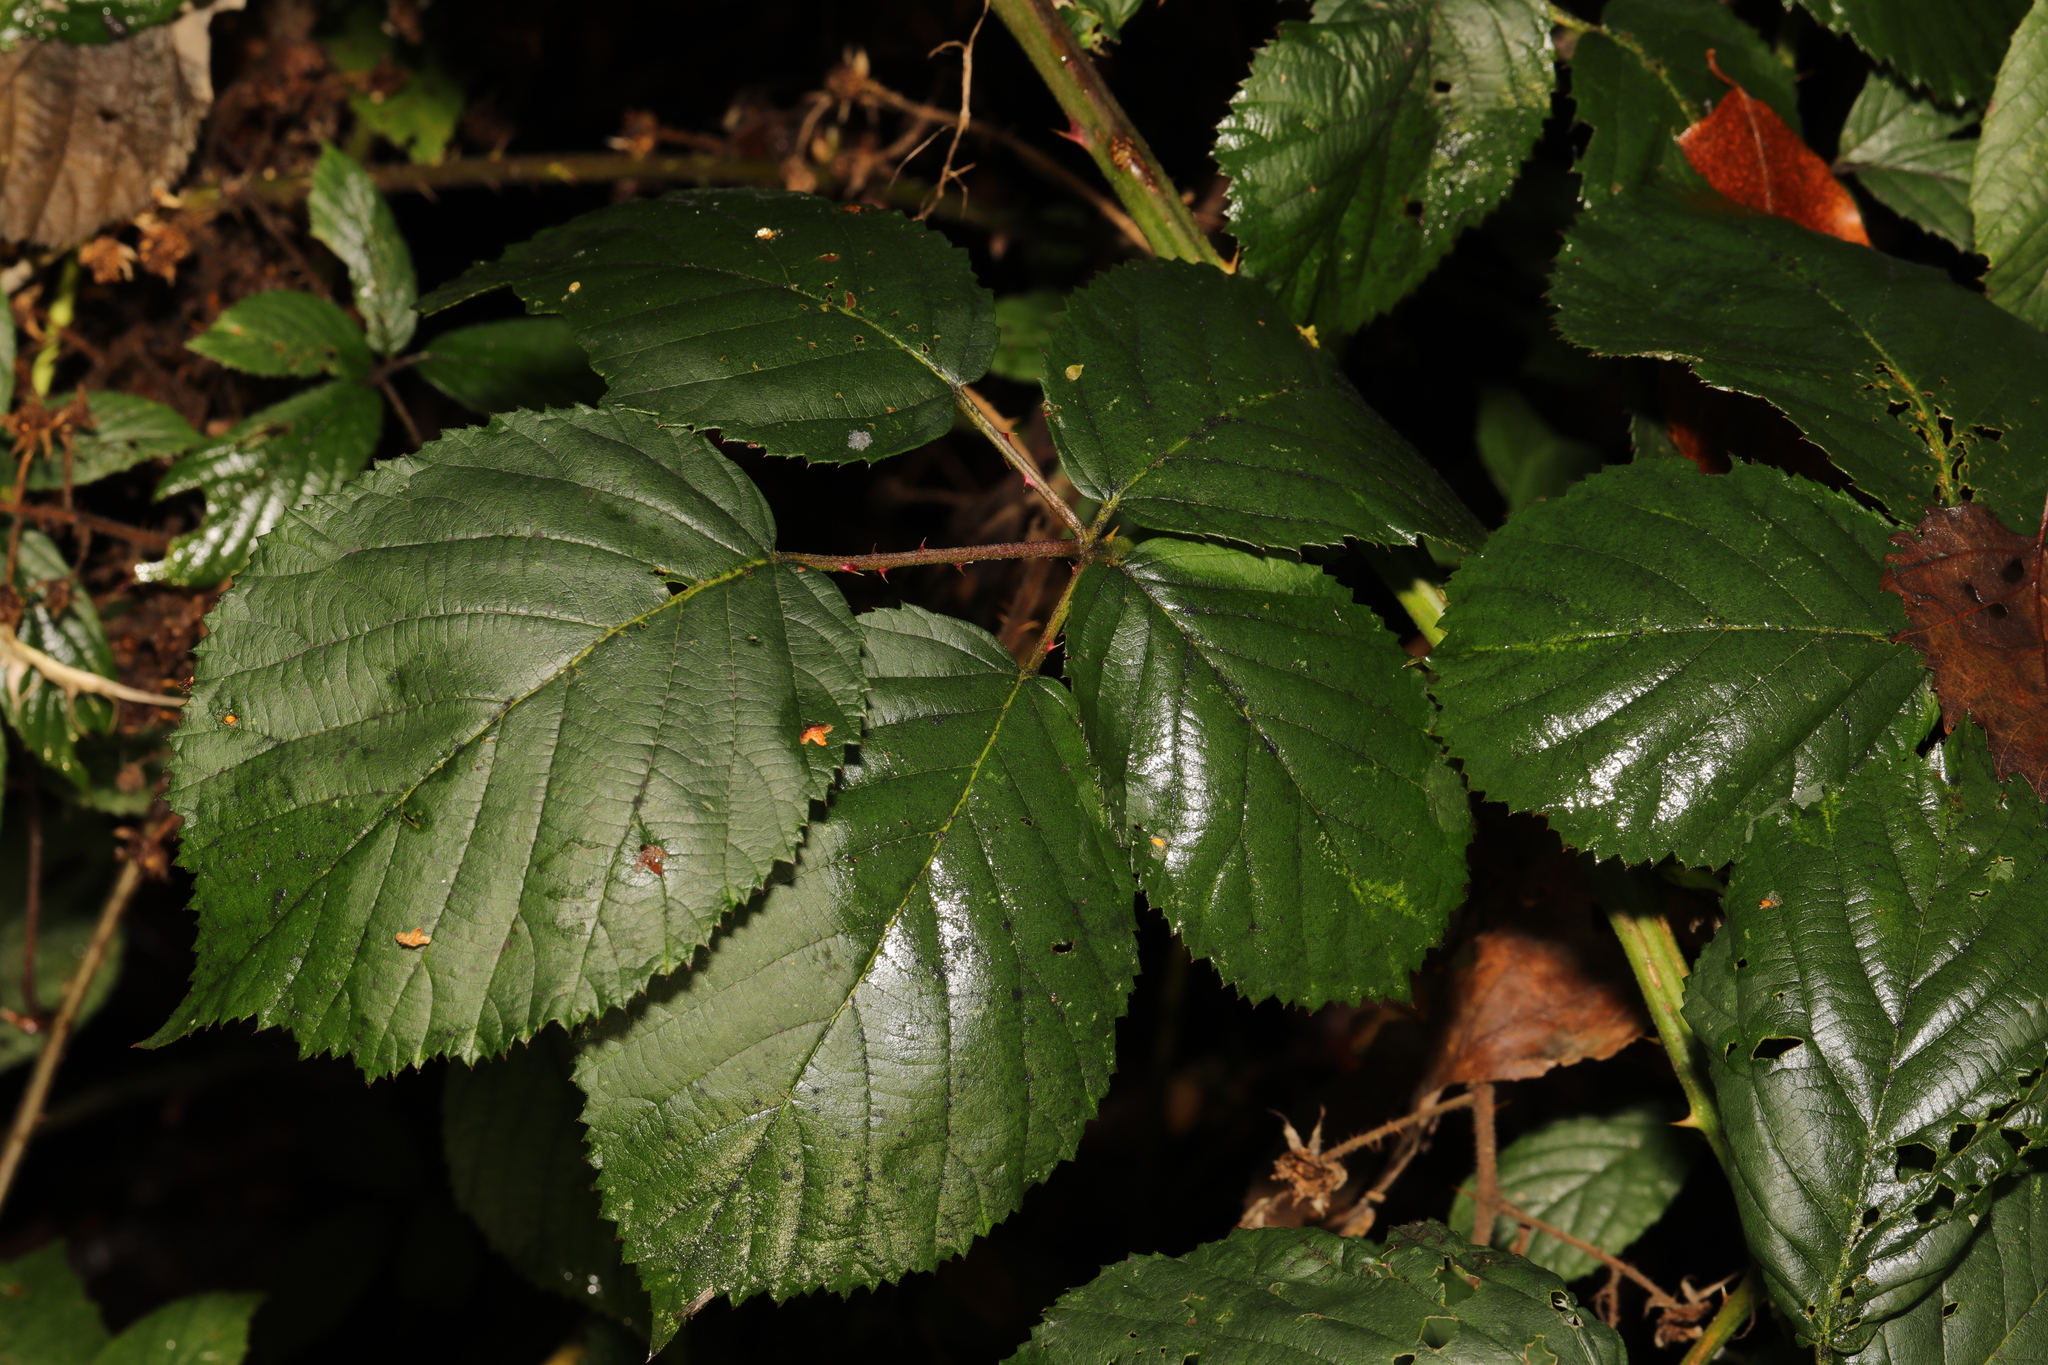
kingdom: Plantae
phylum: Tracheophyta
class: Magnoliopsida
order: Rosales
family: Rosaceae
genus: Rubus
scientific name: Rubus armeniacus
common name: Himalayan blackberry
